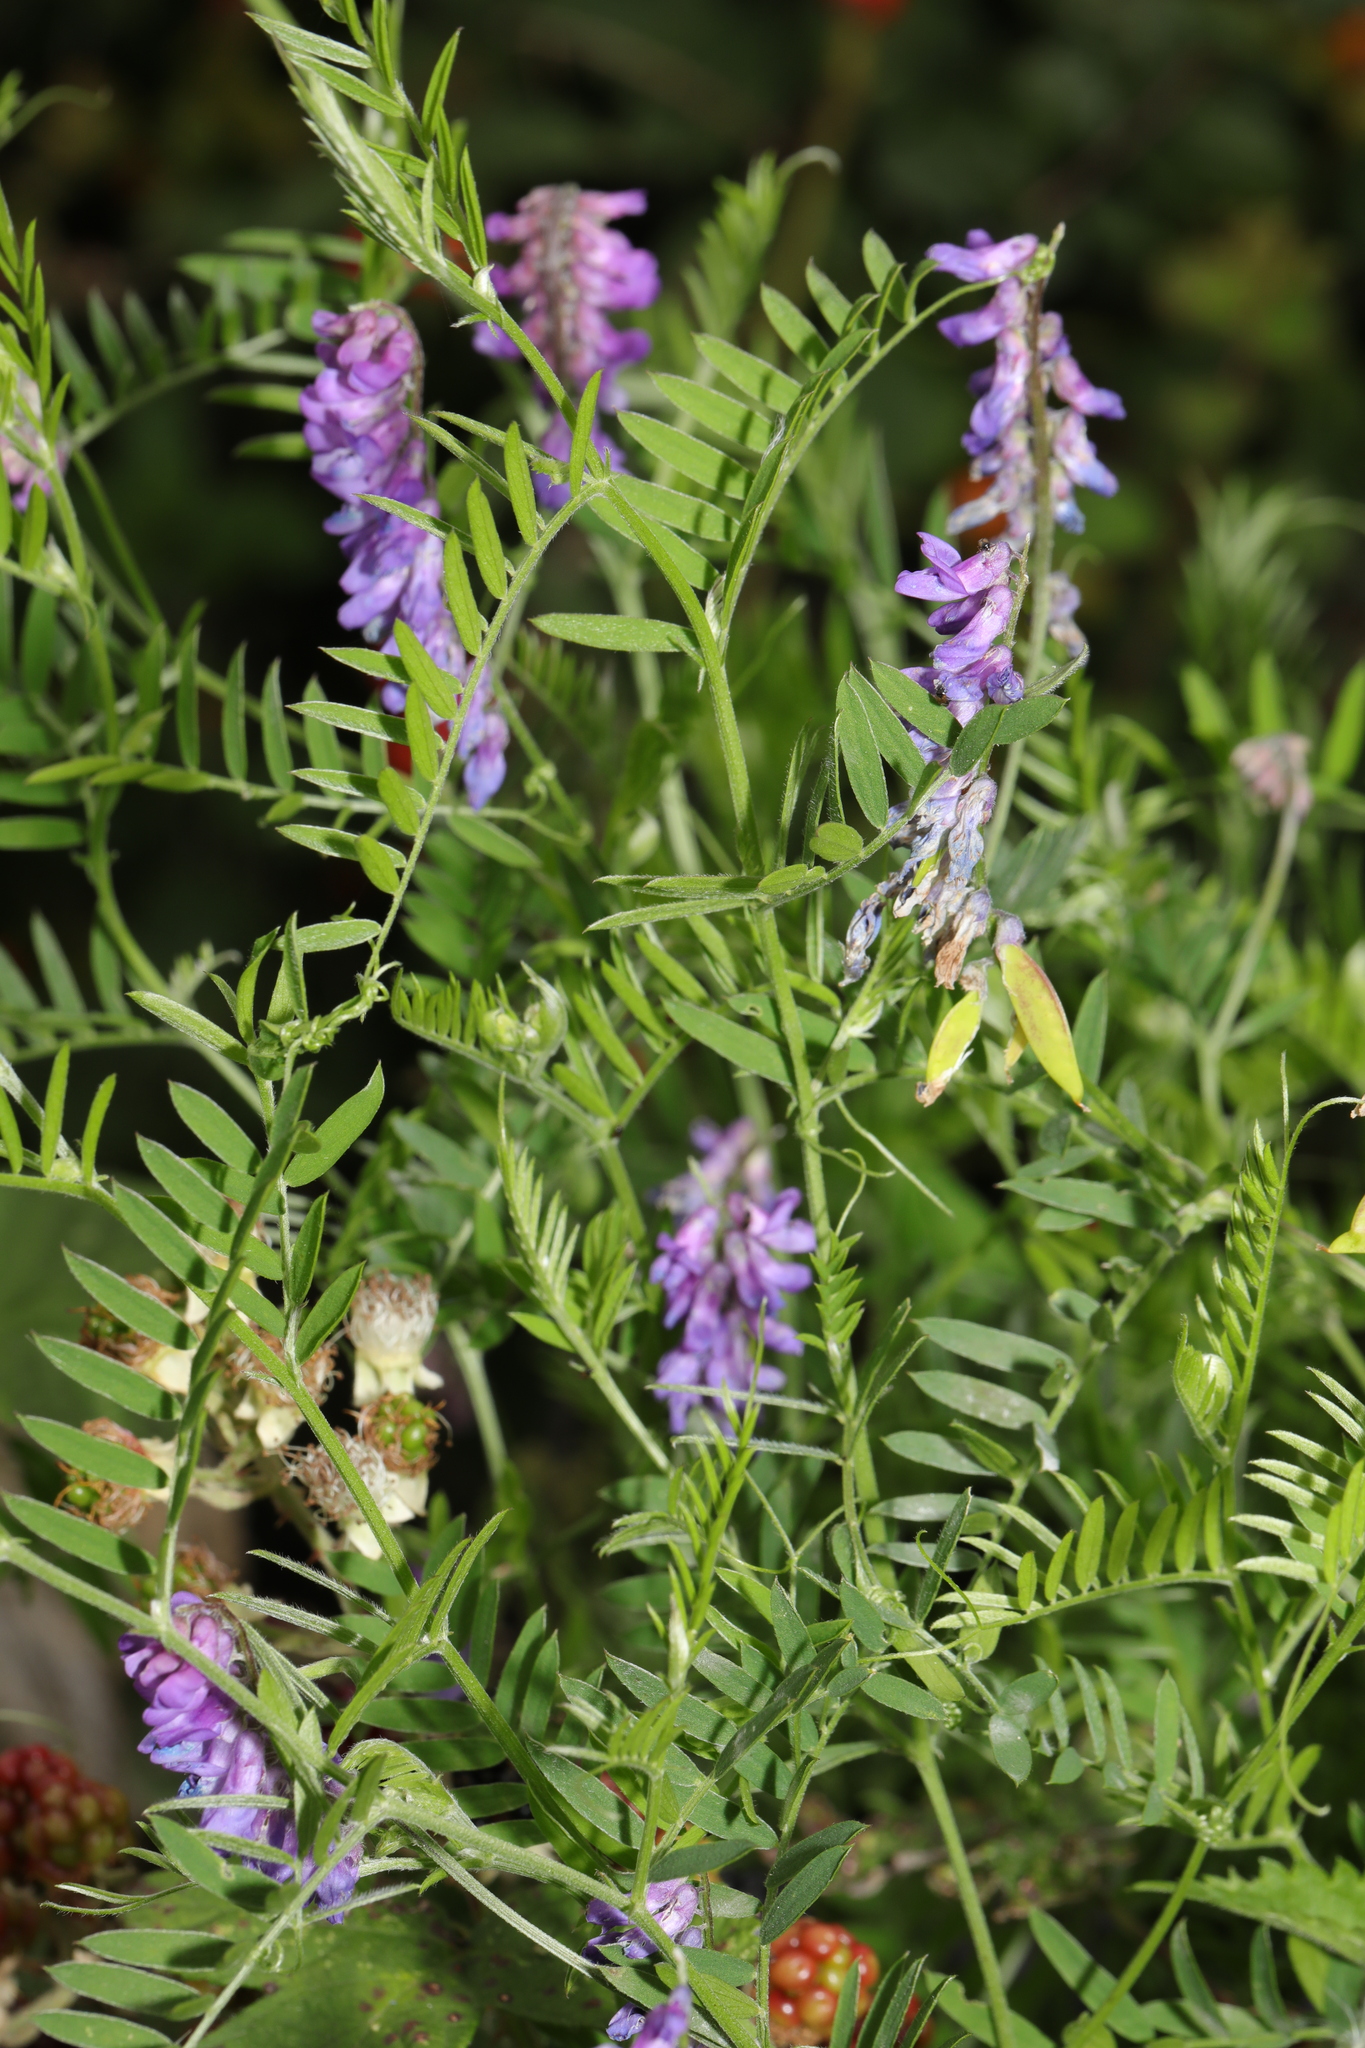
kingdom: Plantae
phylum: Tracheophyta
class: Magnoliopsida
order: Fabales
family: Fabaceae
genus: Vicia
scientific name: Vicia cracca
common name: Bird vetch
